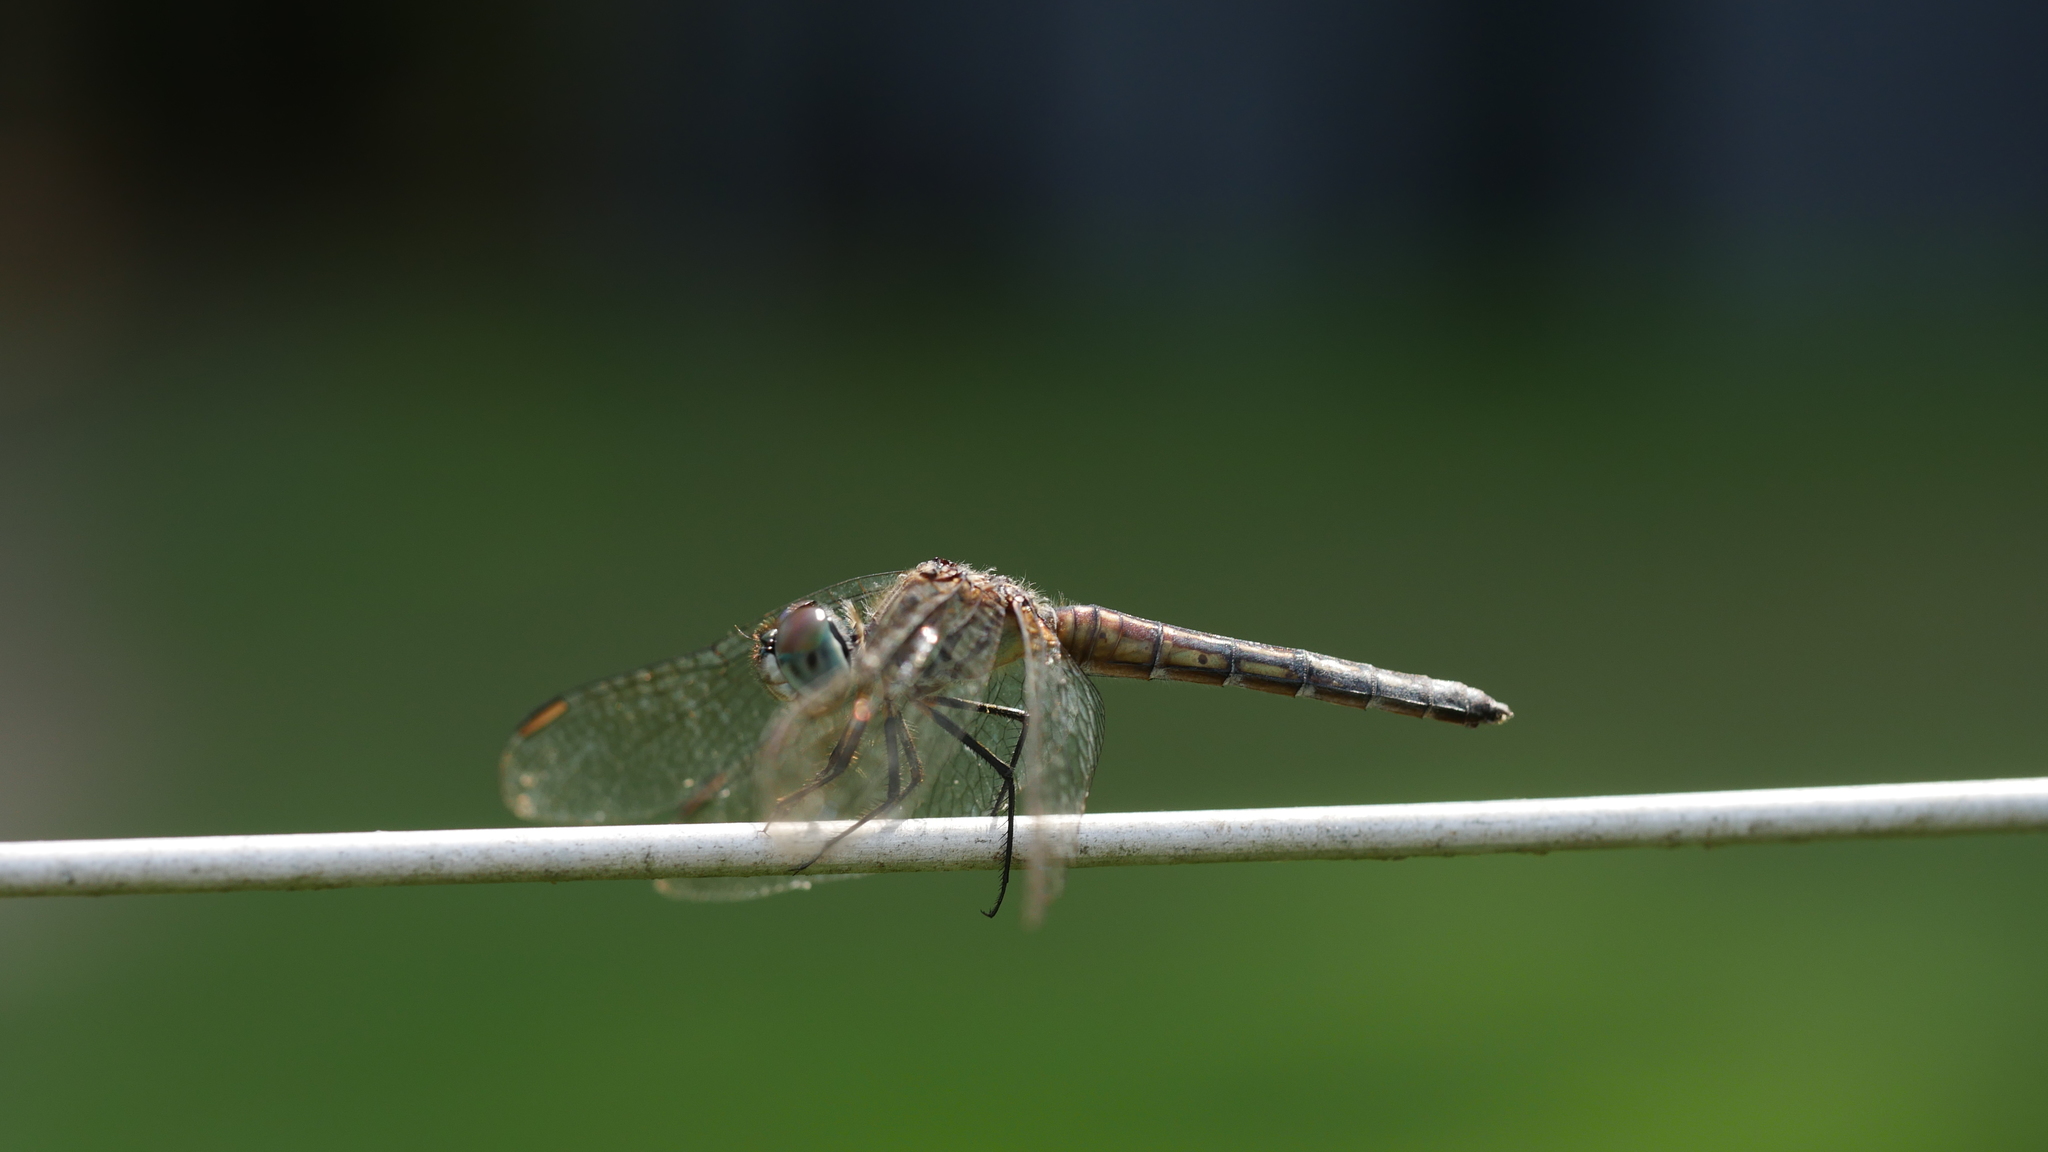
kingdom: Animalia
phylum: Arthropoda
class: Insecta
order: Odonata
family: Libellulidae
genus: Pachydiplax
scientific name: Pachydiplax longipennis
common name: Blue dasher
